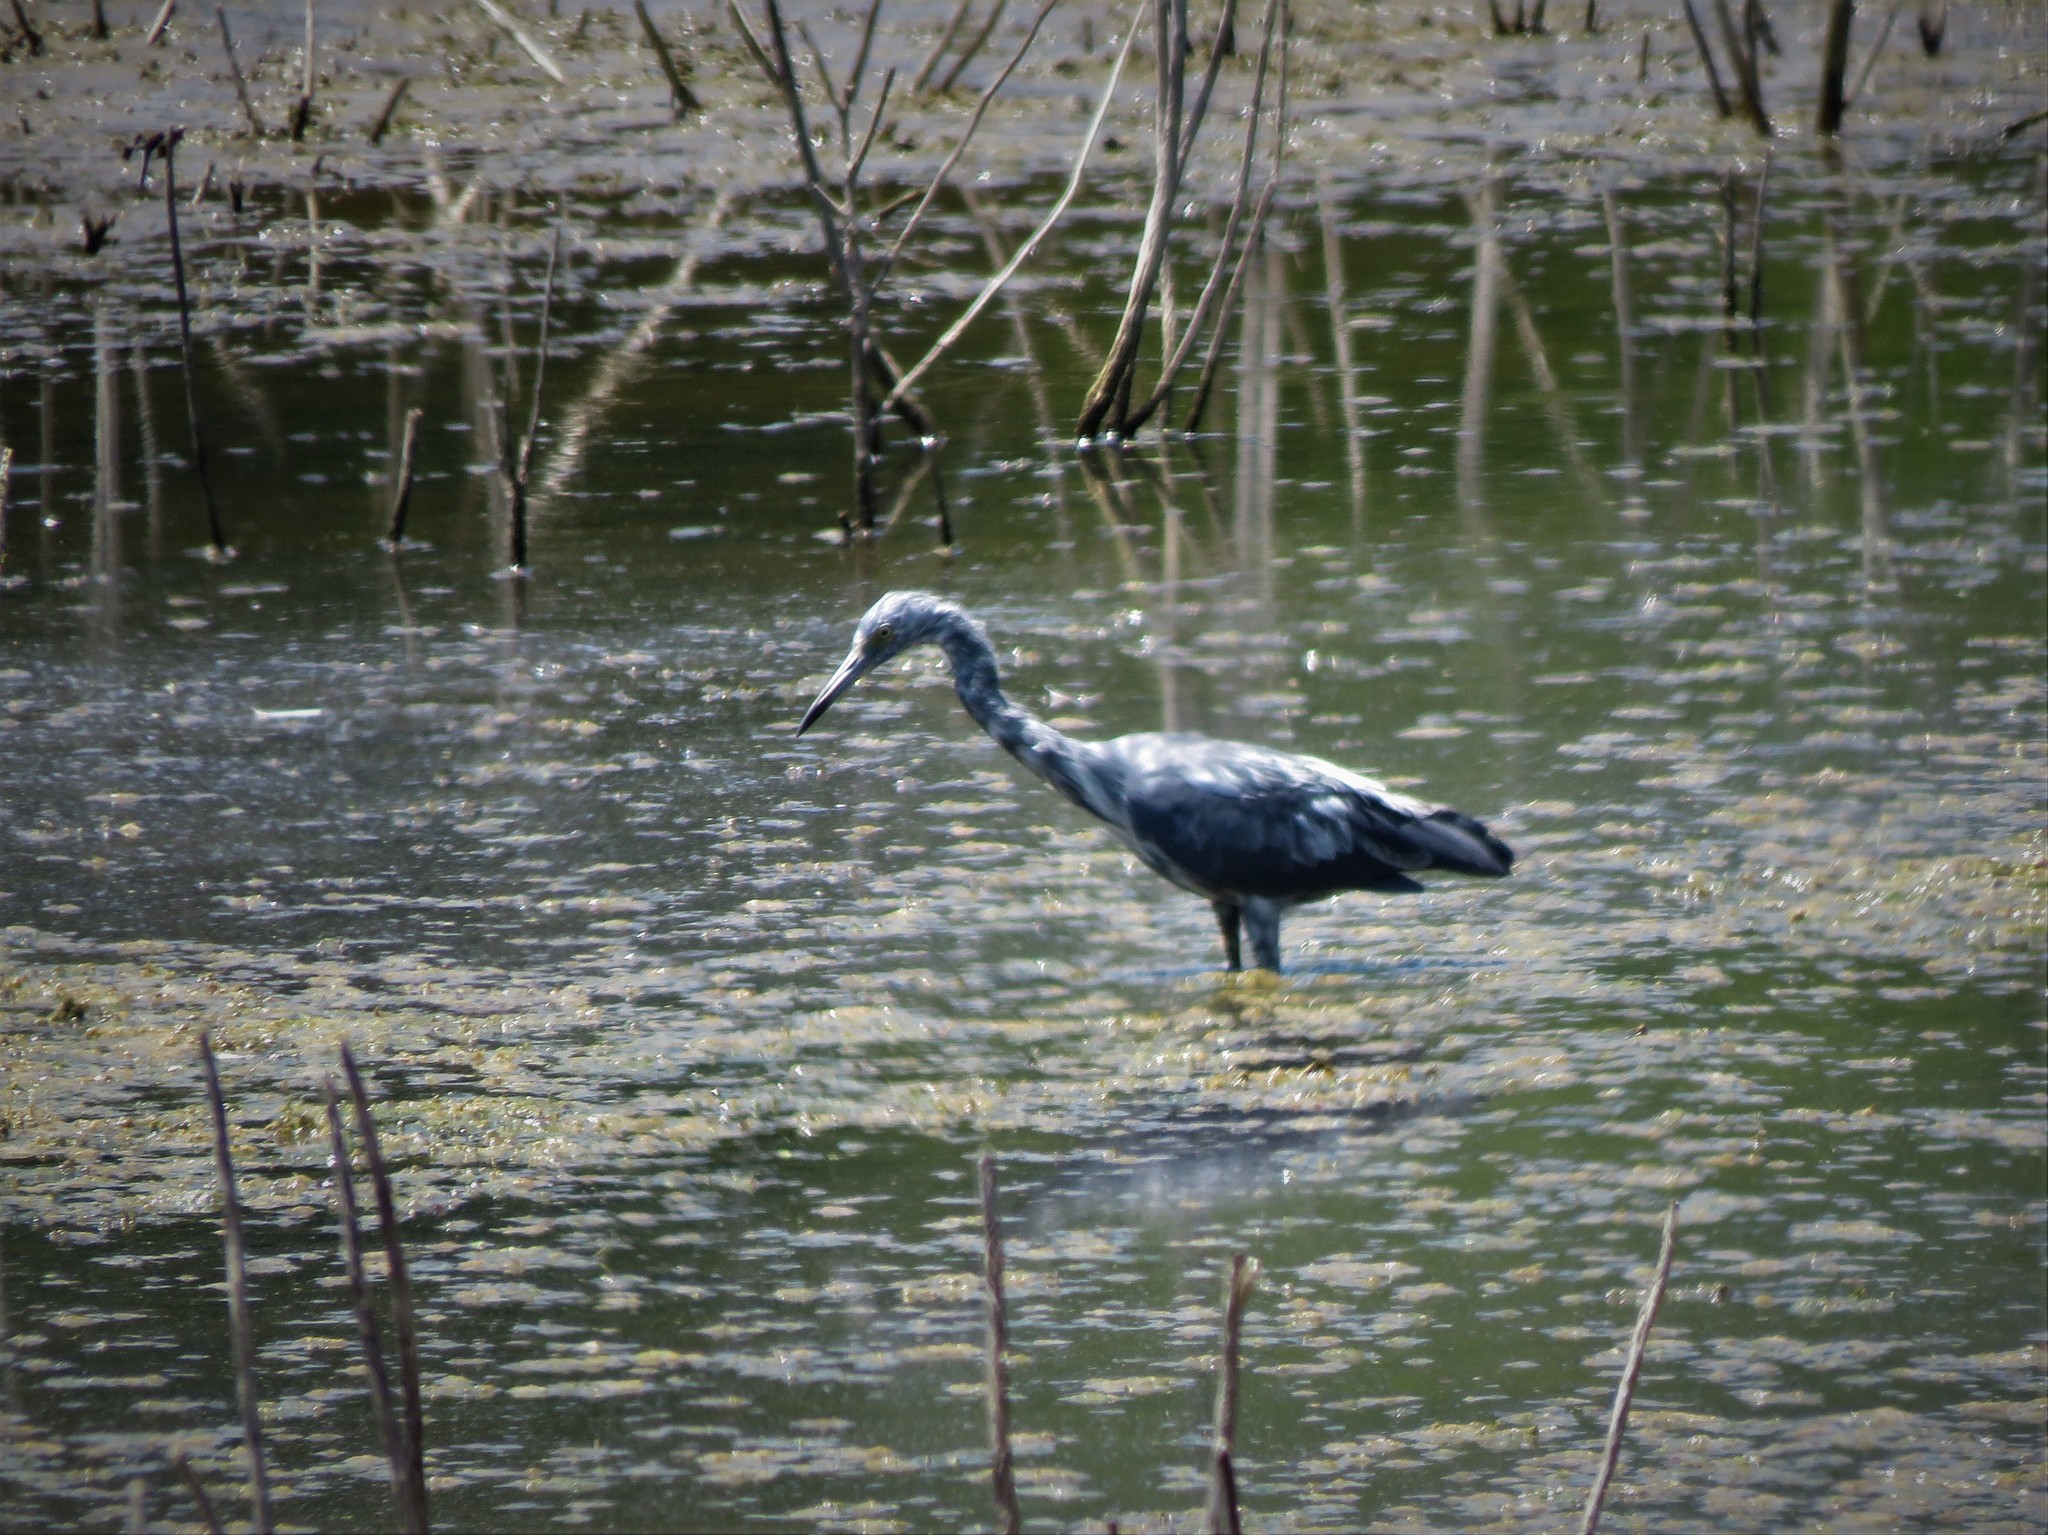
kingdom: Animalia
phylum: Chordata
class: Aves
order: Pelecaniformes
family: Ardeidae
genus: Egretta
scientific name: Egretta caerulea
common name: Little blue heron
